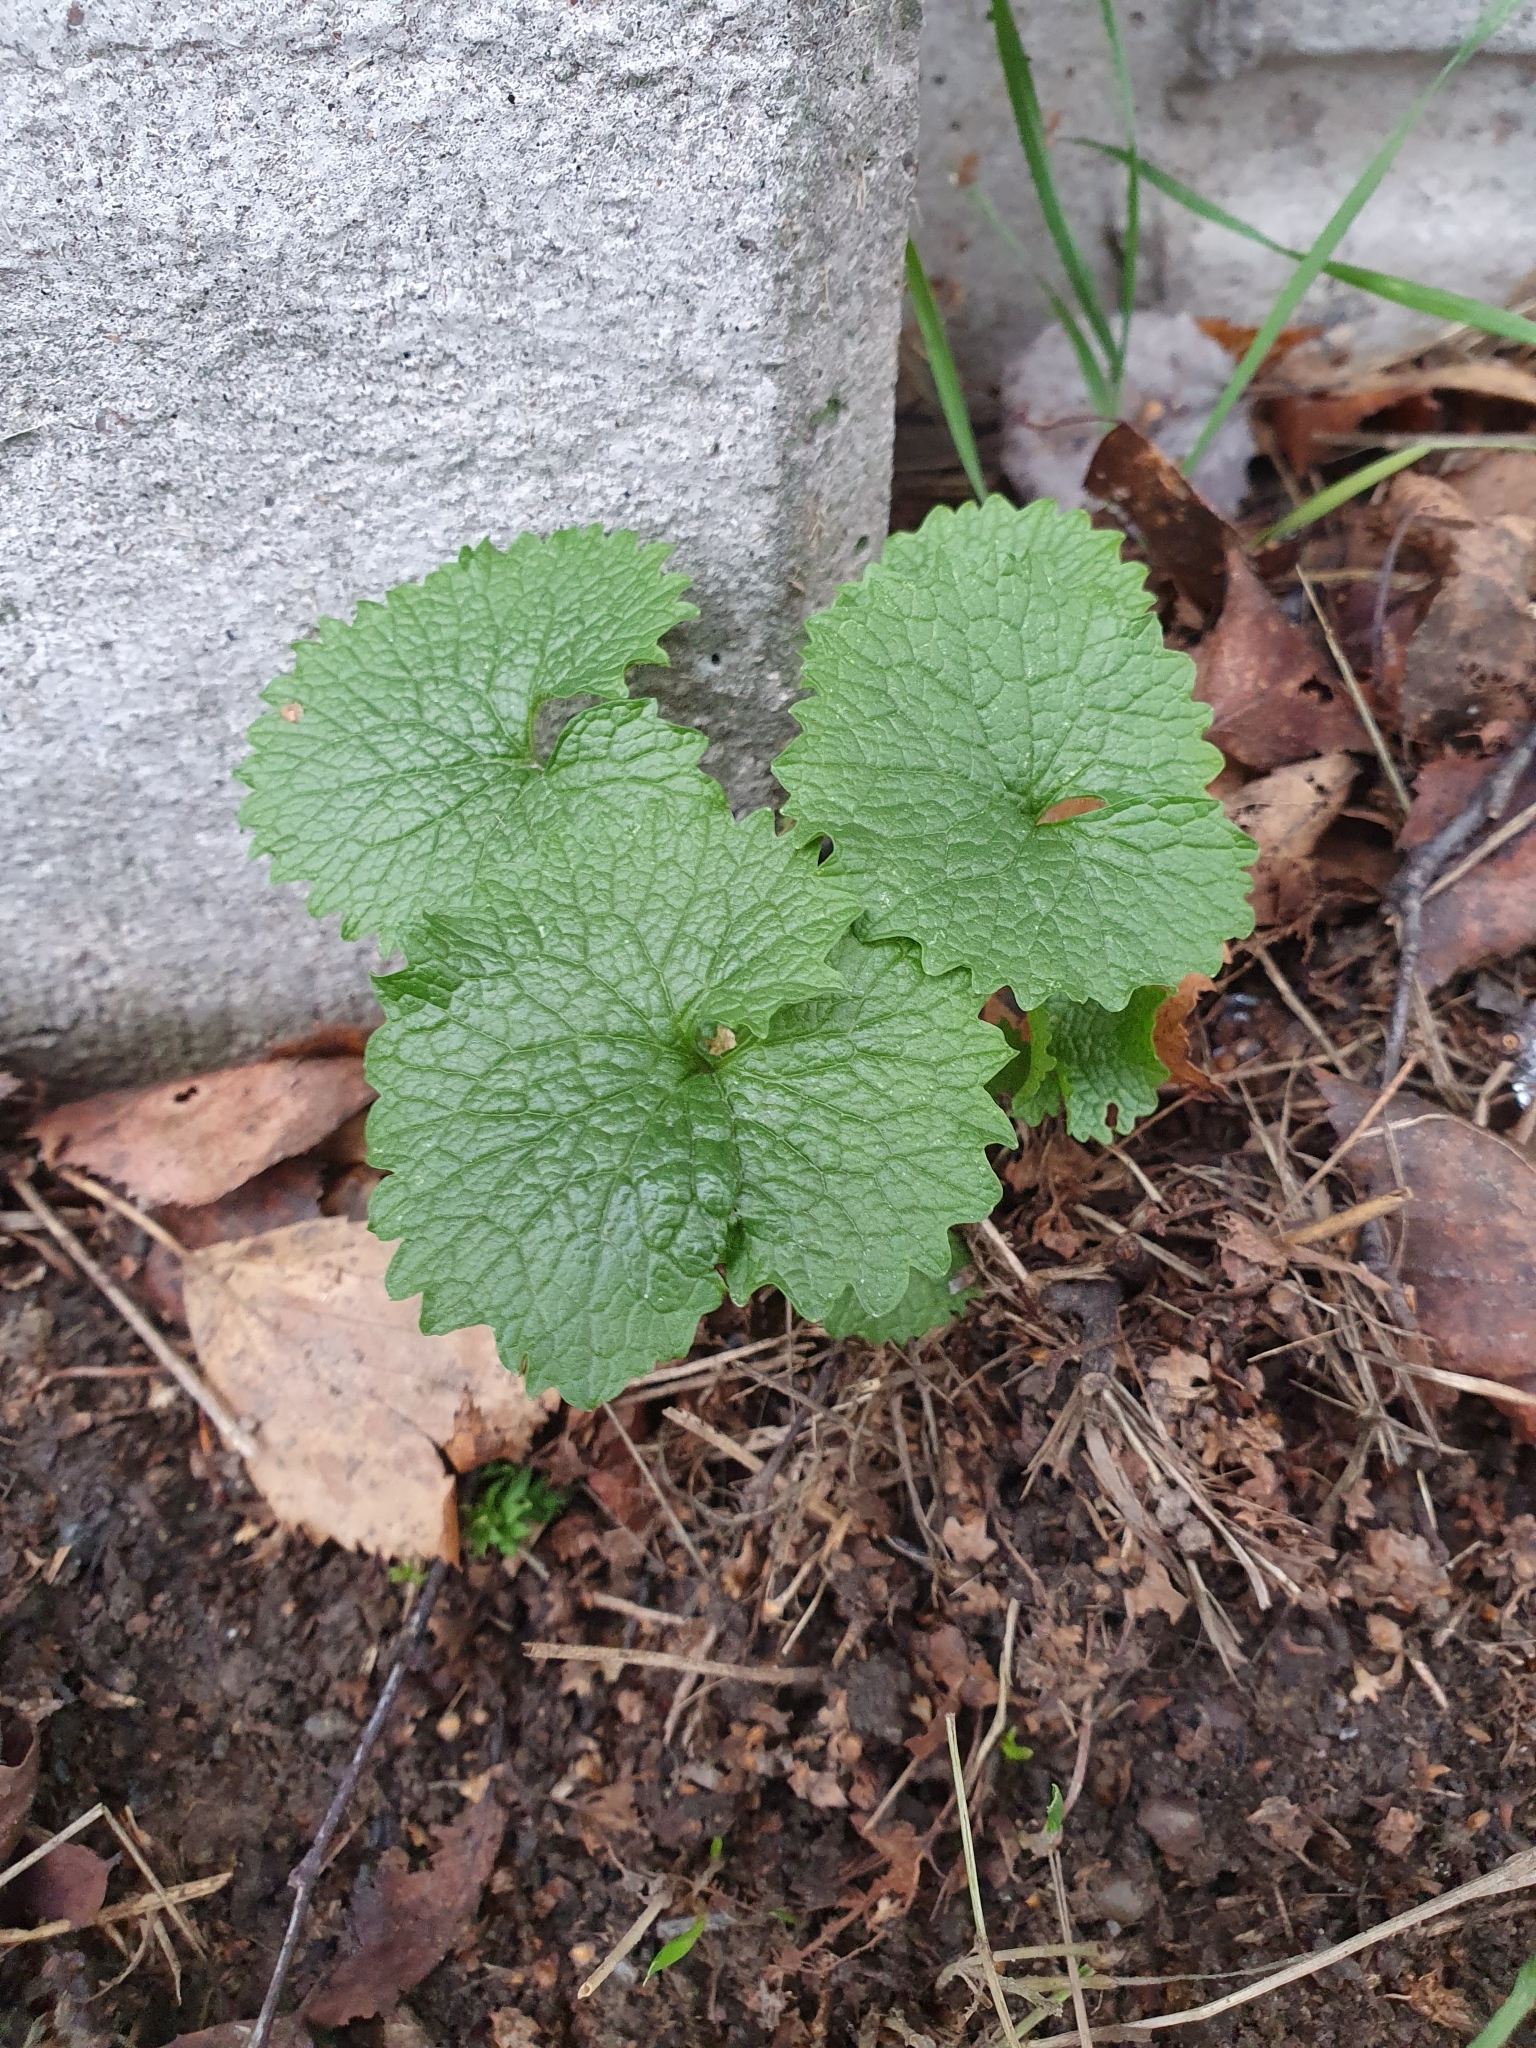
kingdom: Plantae
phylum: Tracheophyta
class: Magnoliopsida
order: Brassicales
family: Brassicaceae
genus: Alliaria
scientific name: Alliaria petiolata
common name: Garlic mustard
